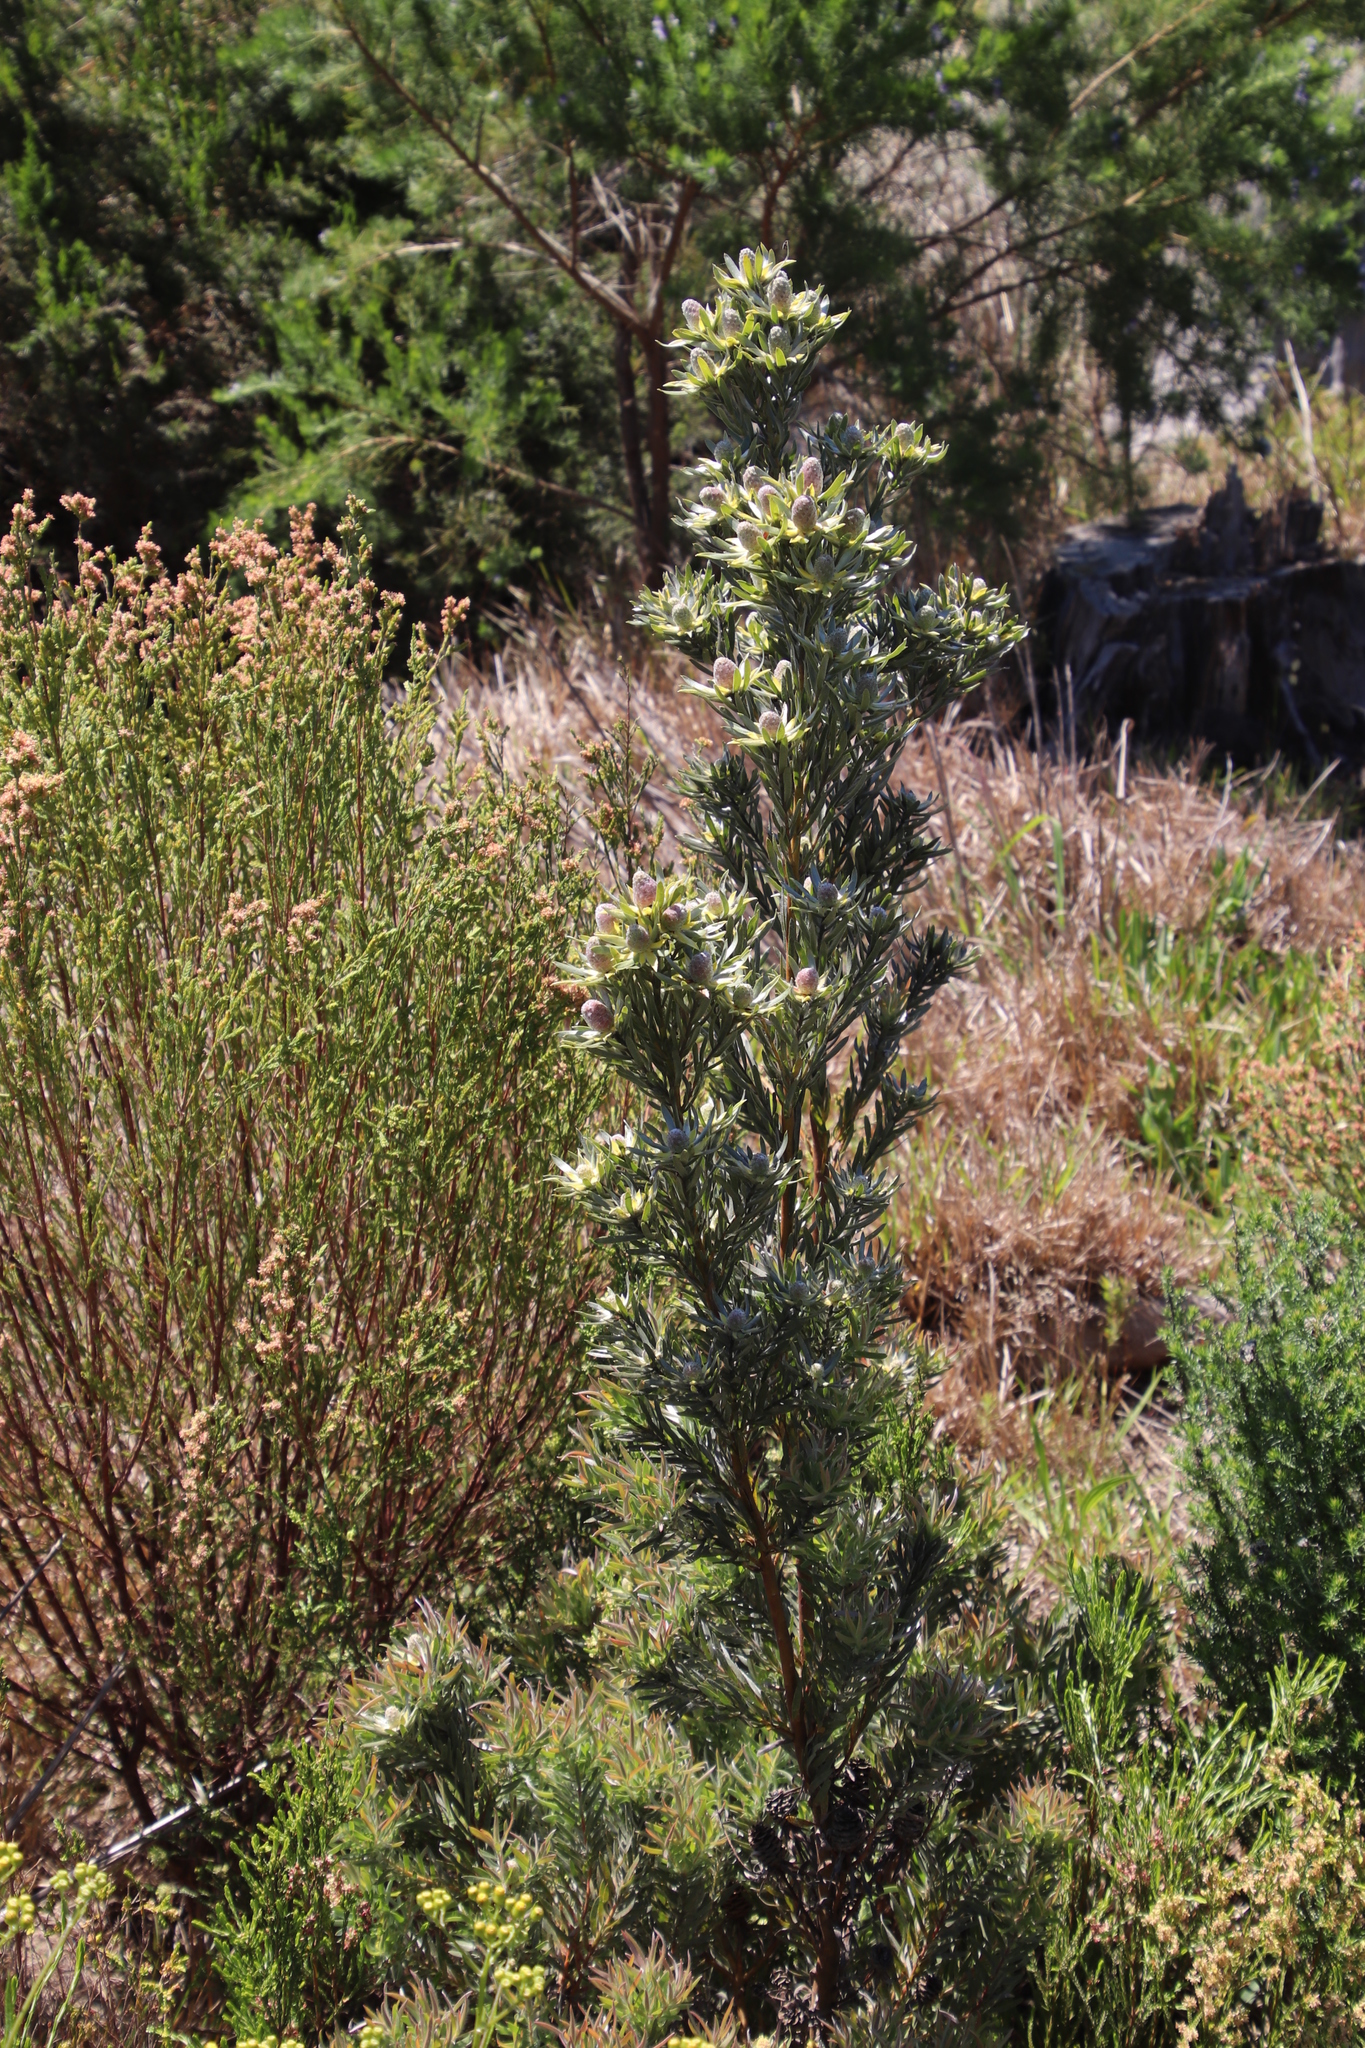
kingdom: Plantae
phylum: Tracheophyta
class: Magnoliopsida
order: Proteales
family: Proteaceae
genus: Leucadendron
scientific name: Leucadendron floridum
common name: Flats conebush
